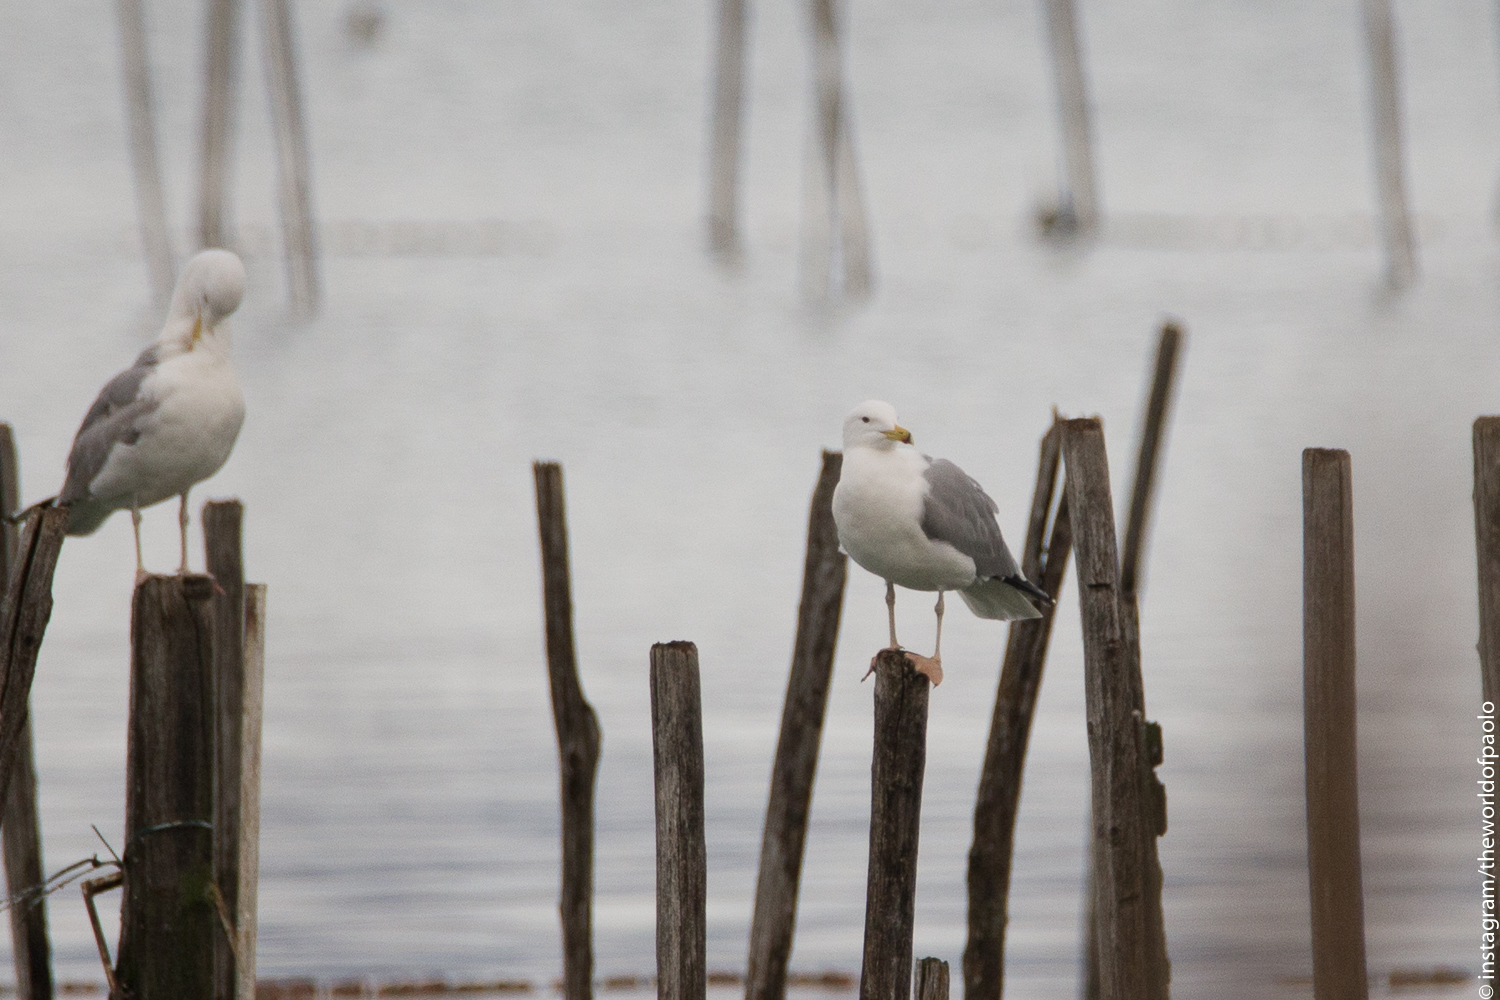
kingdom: Animalia
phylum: Chordata
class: Aves
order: Charadriiformes
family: Laridae
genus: Larus
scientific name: Larus cachinnans
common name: Caspian gull
